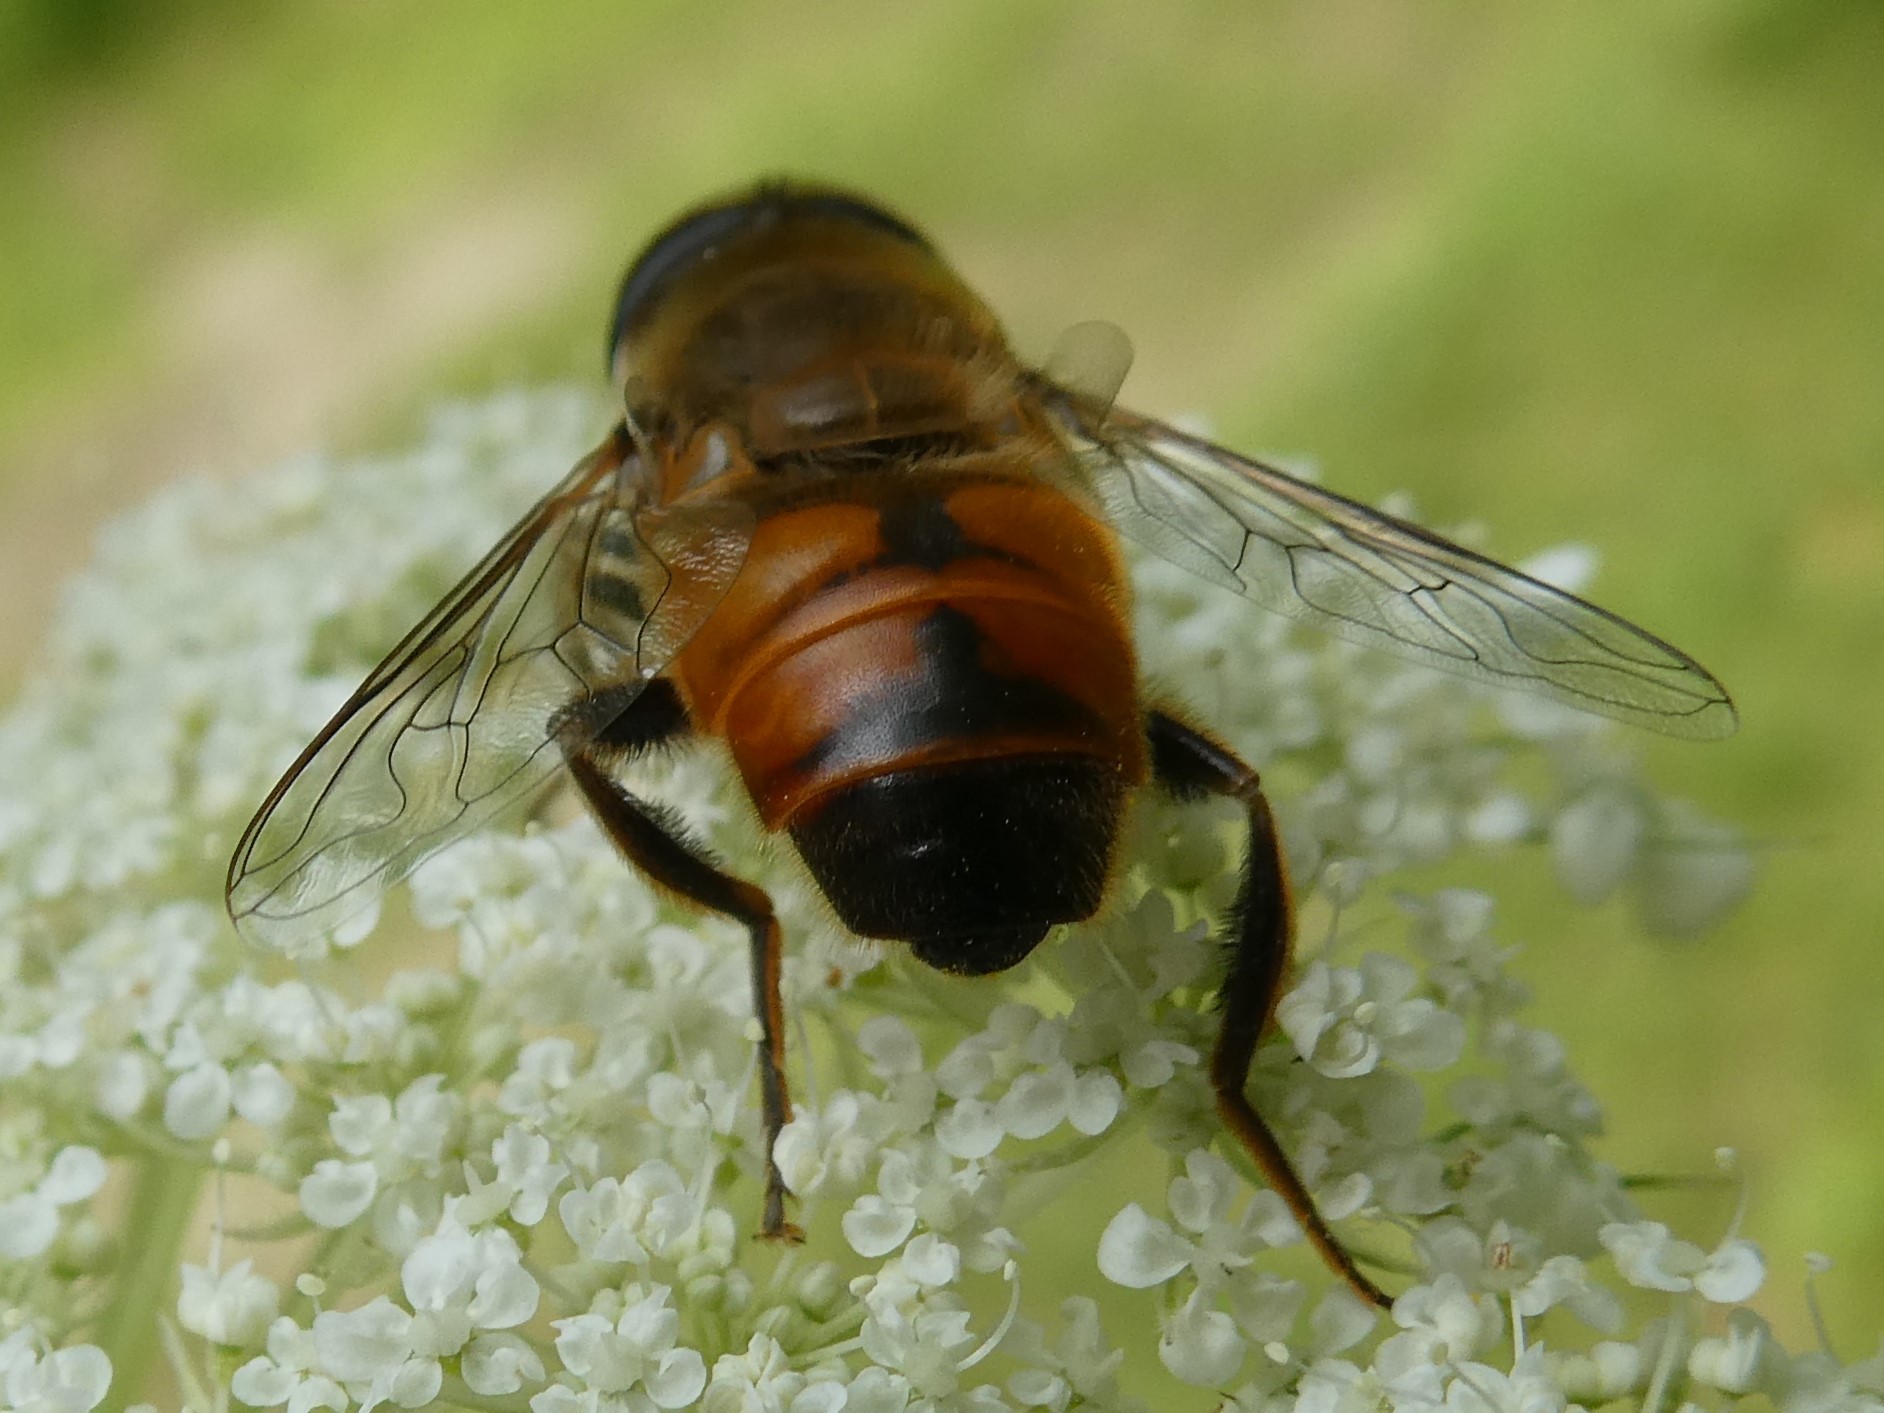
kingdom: Animalia
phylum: Arthropoda
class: Insecta
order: Diptera
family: Syrphidae
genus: Eristalis
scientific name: Eristalis tenax
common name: Drone fly
